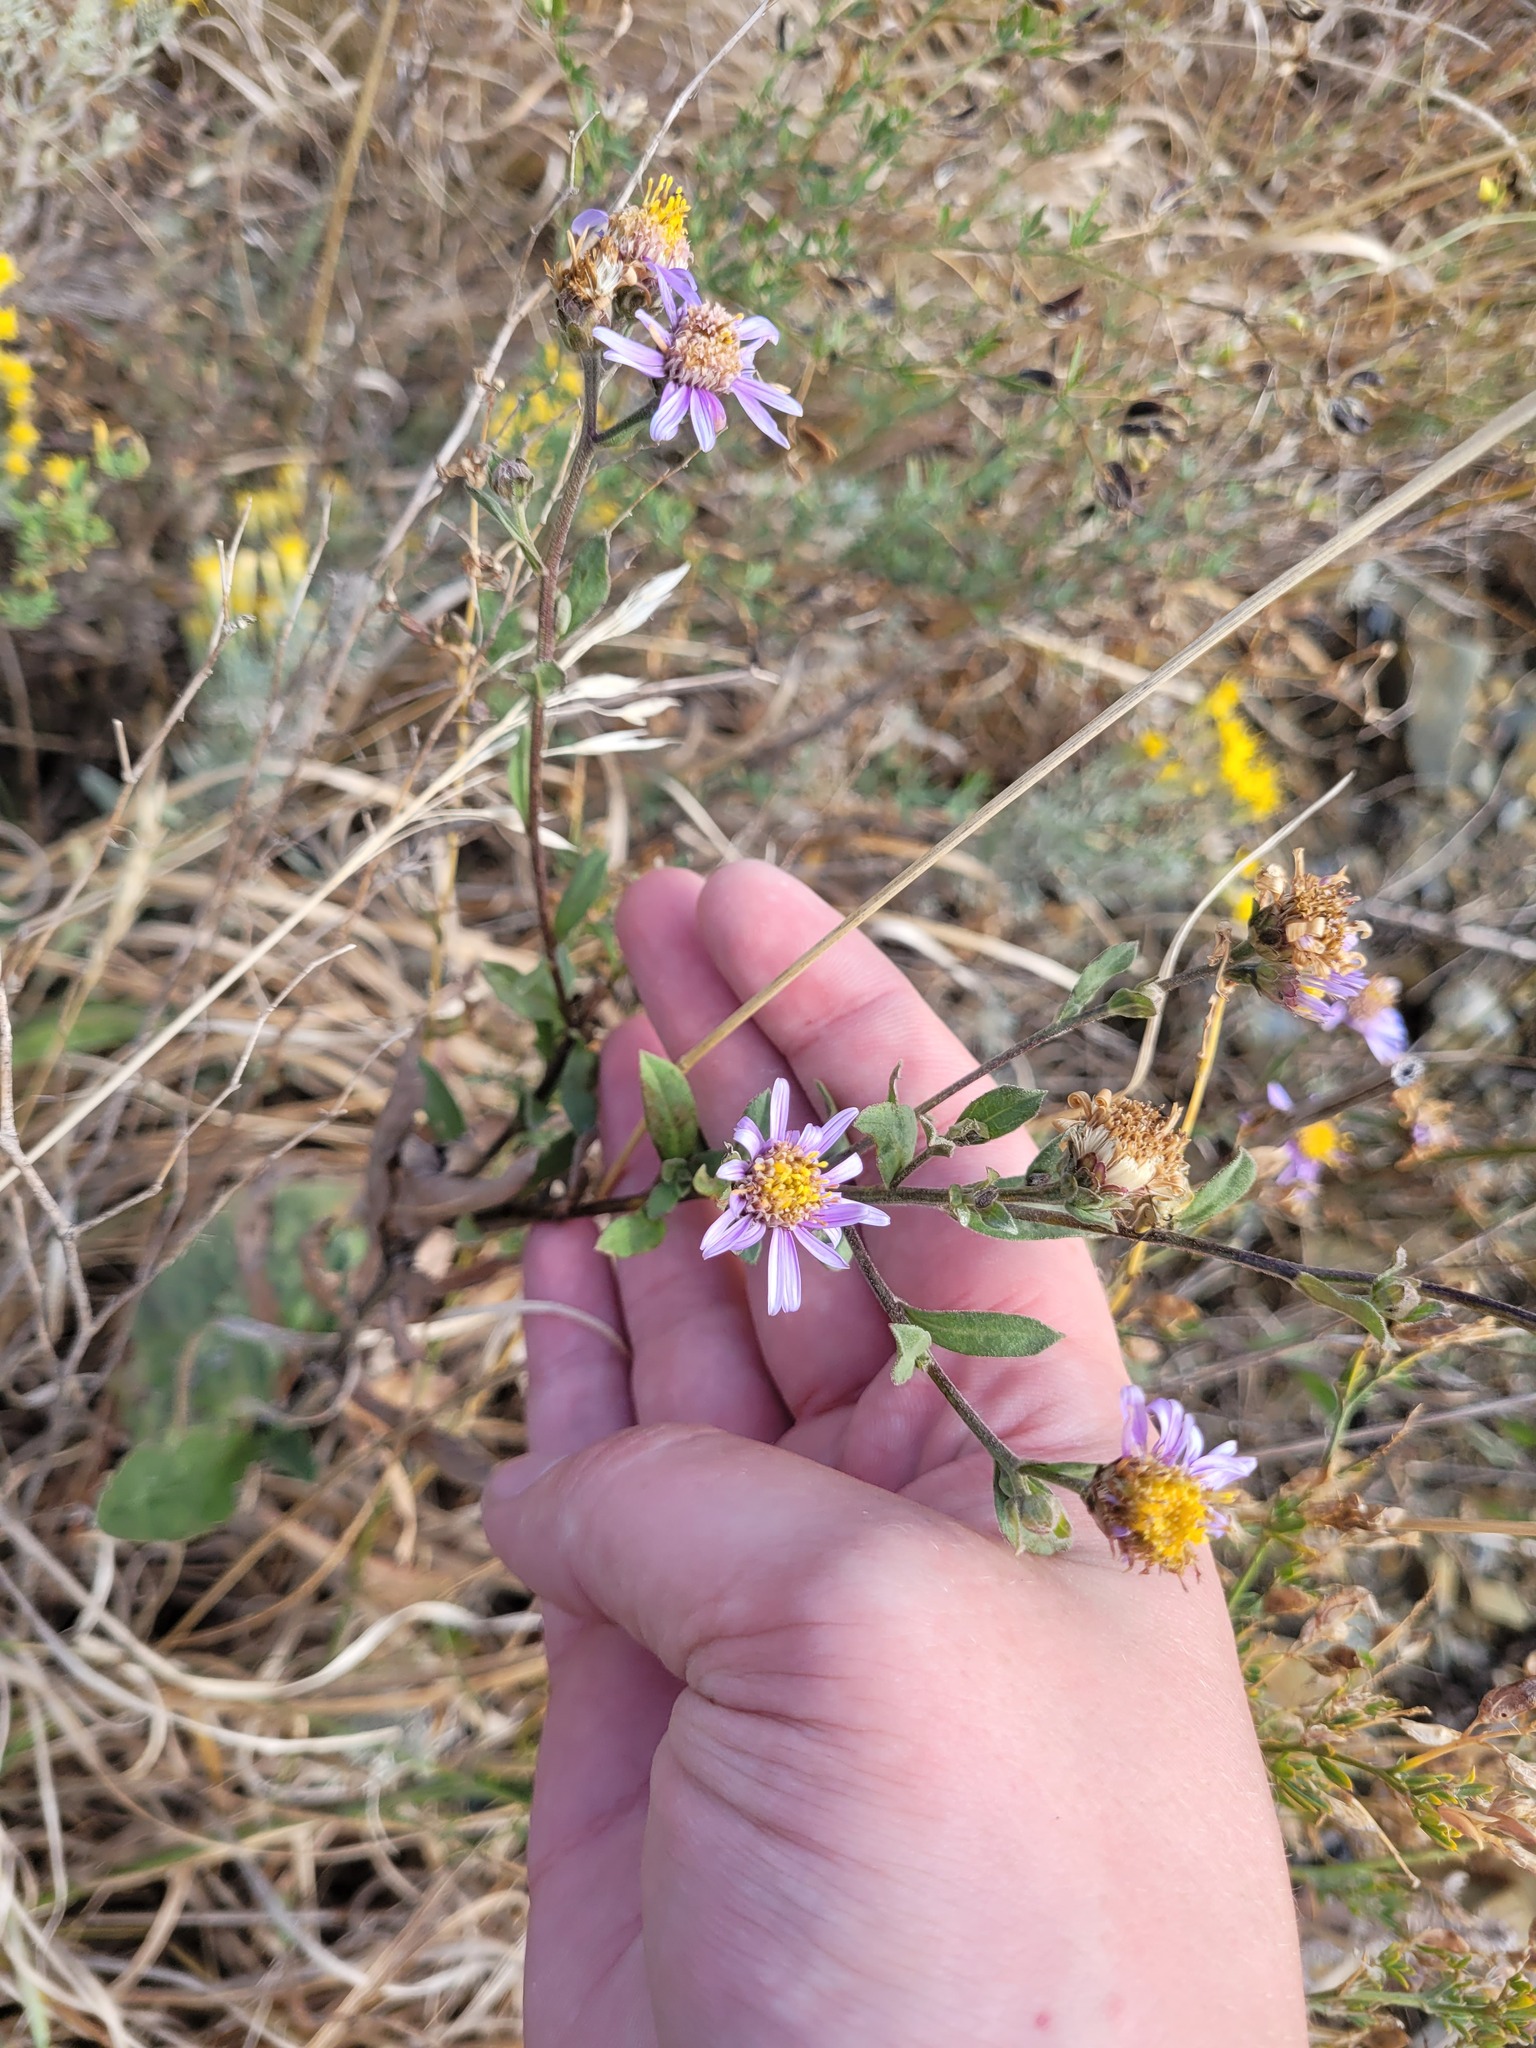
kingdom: Plantae
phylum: Tracheophyta
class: Magnoliopsida
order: Asterales
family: Asteraceae
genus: Aster
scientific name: Aster amellus
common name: European michaelmas daisy
